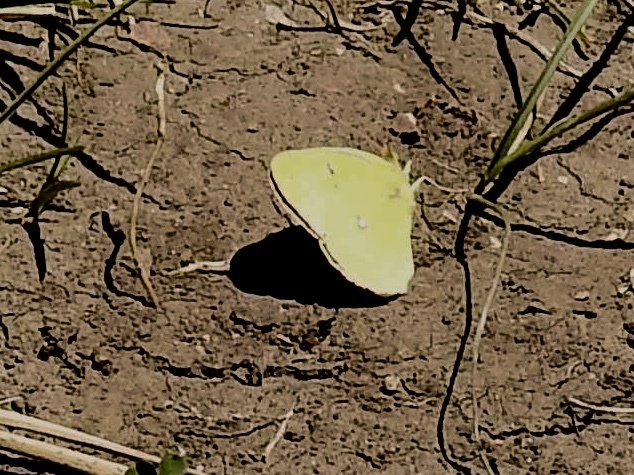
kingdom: Animalia
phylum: Arthropoda
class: Insecta
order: Lepidoptera
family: Pieridae
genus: Colias
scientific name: Colias eurytheme
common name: Alfalfa butterfly
